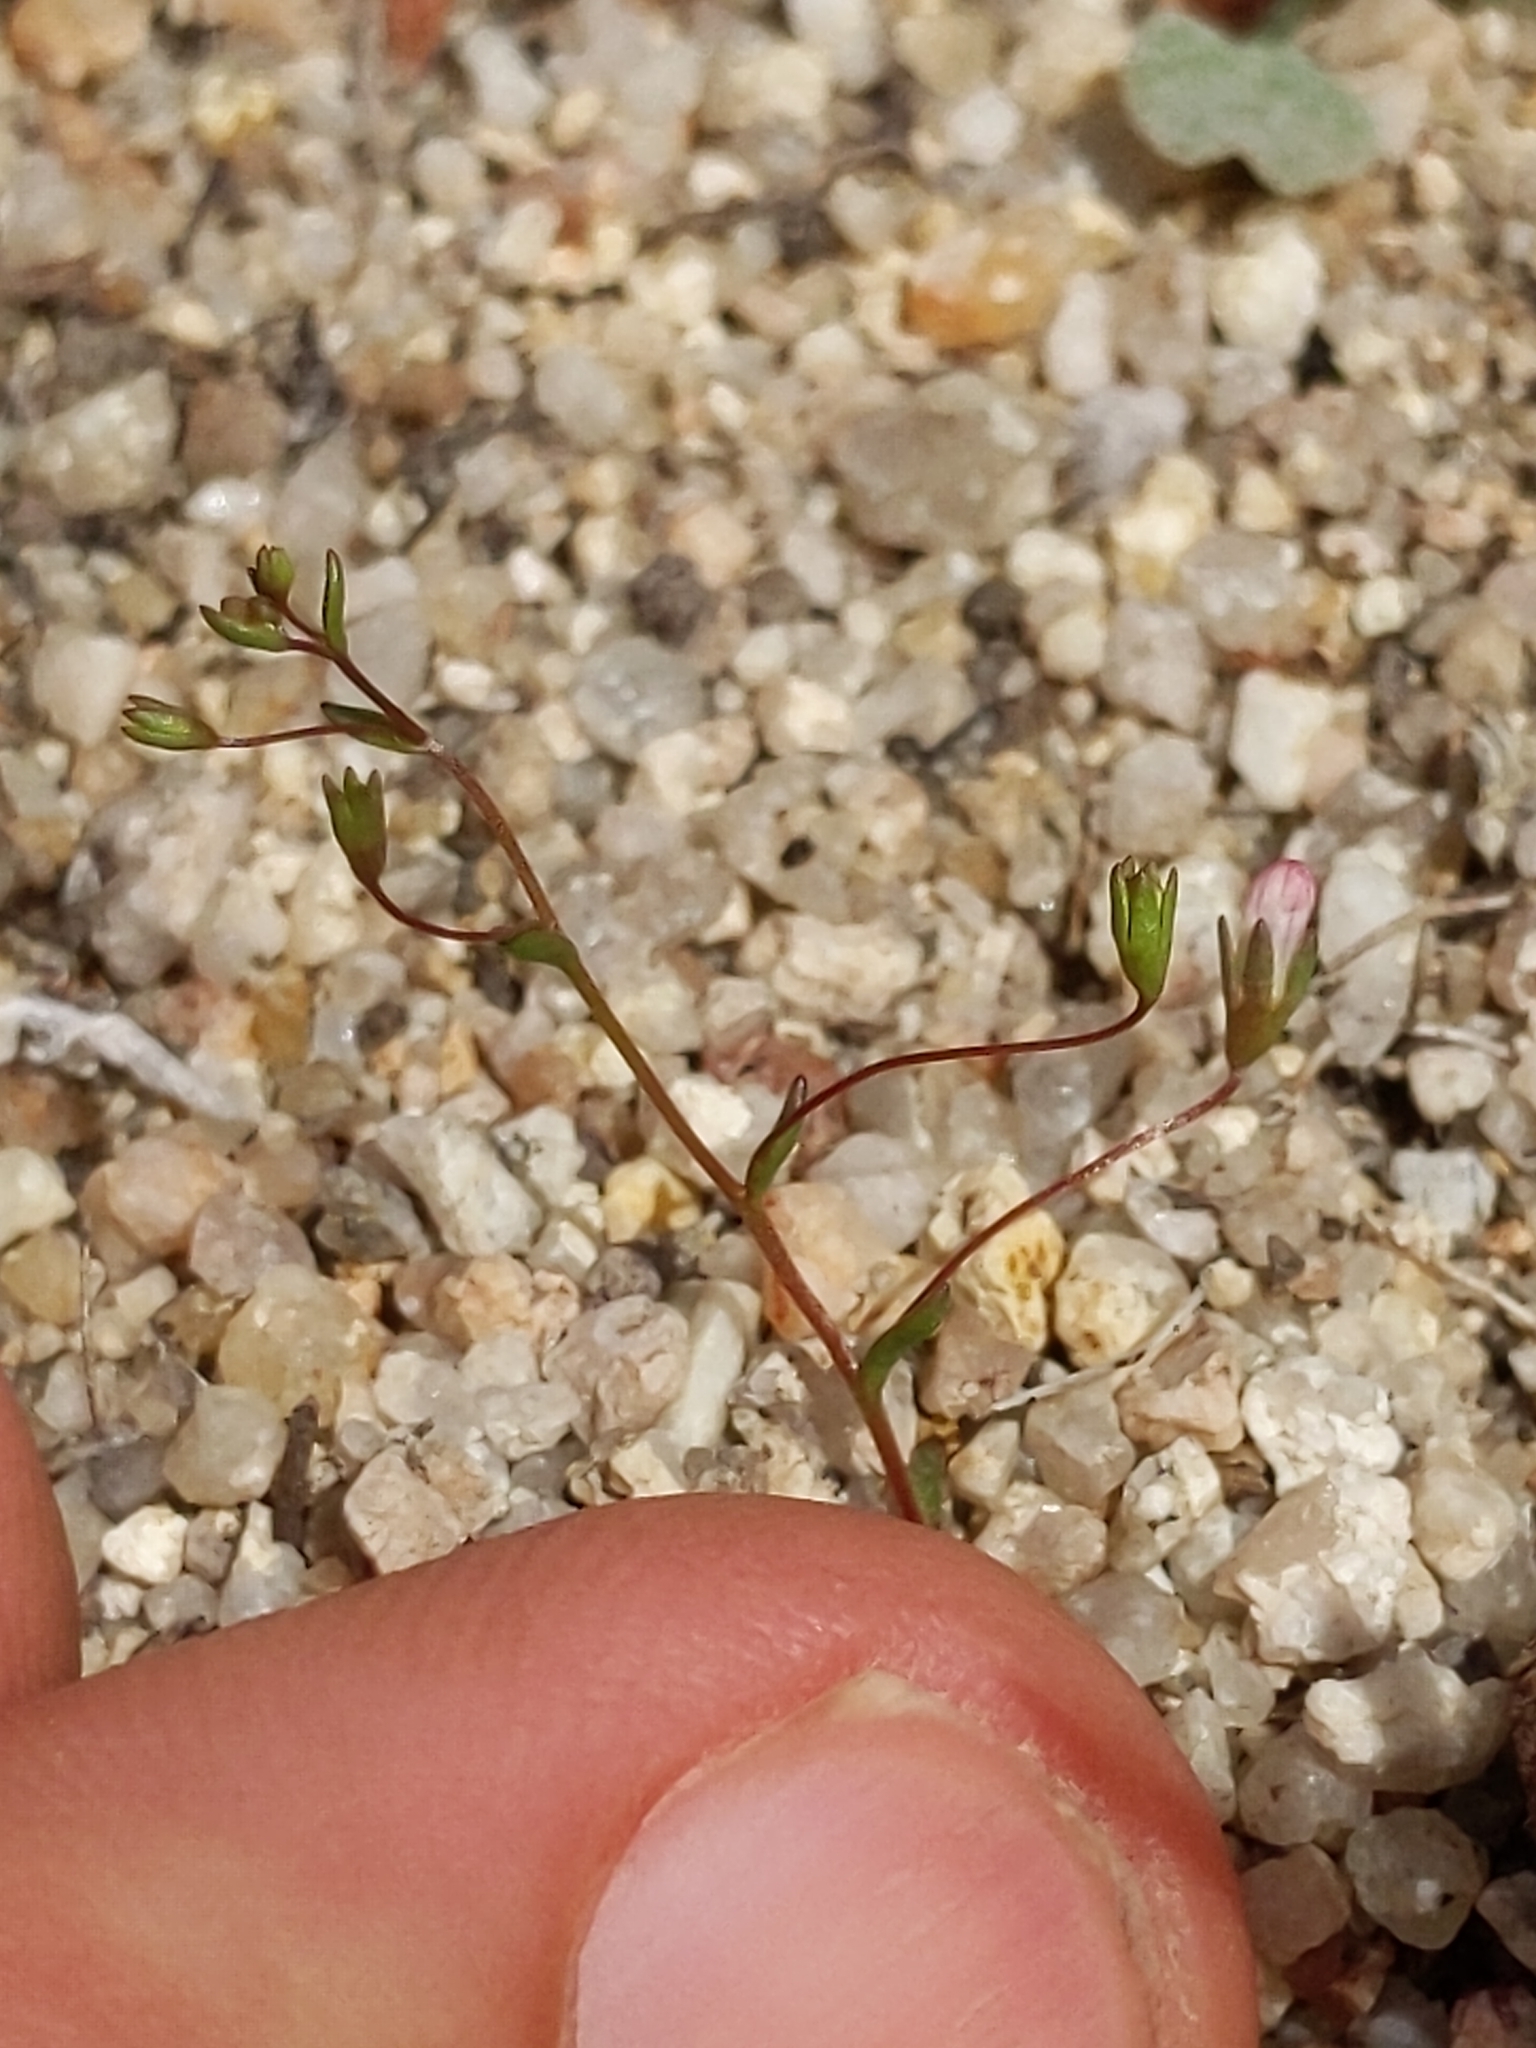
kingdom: Plantae
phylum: Tracheophyta
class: Magnoliopsida
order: Asterales
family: Campanulaceae
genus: Nemacladus
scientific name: Nemacladus secundiflorus
